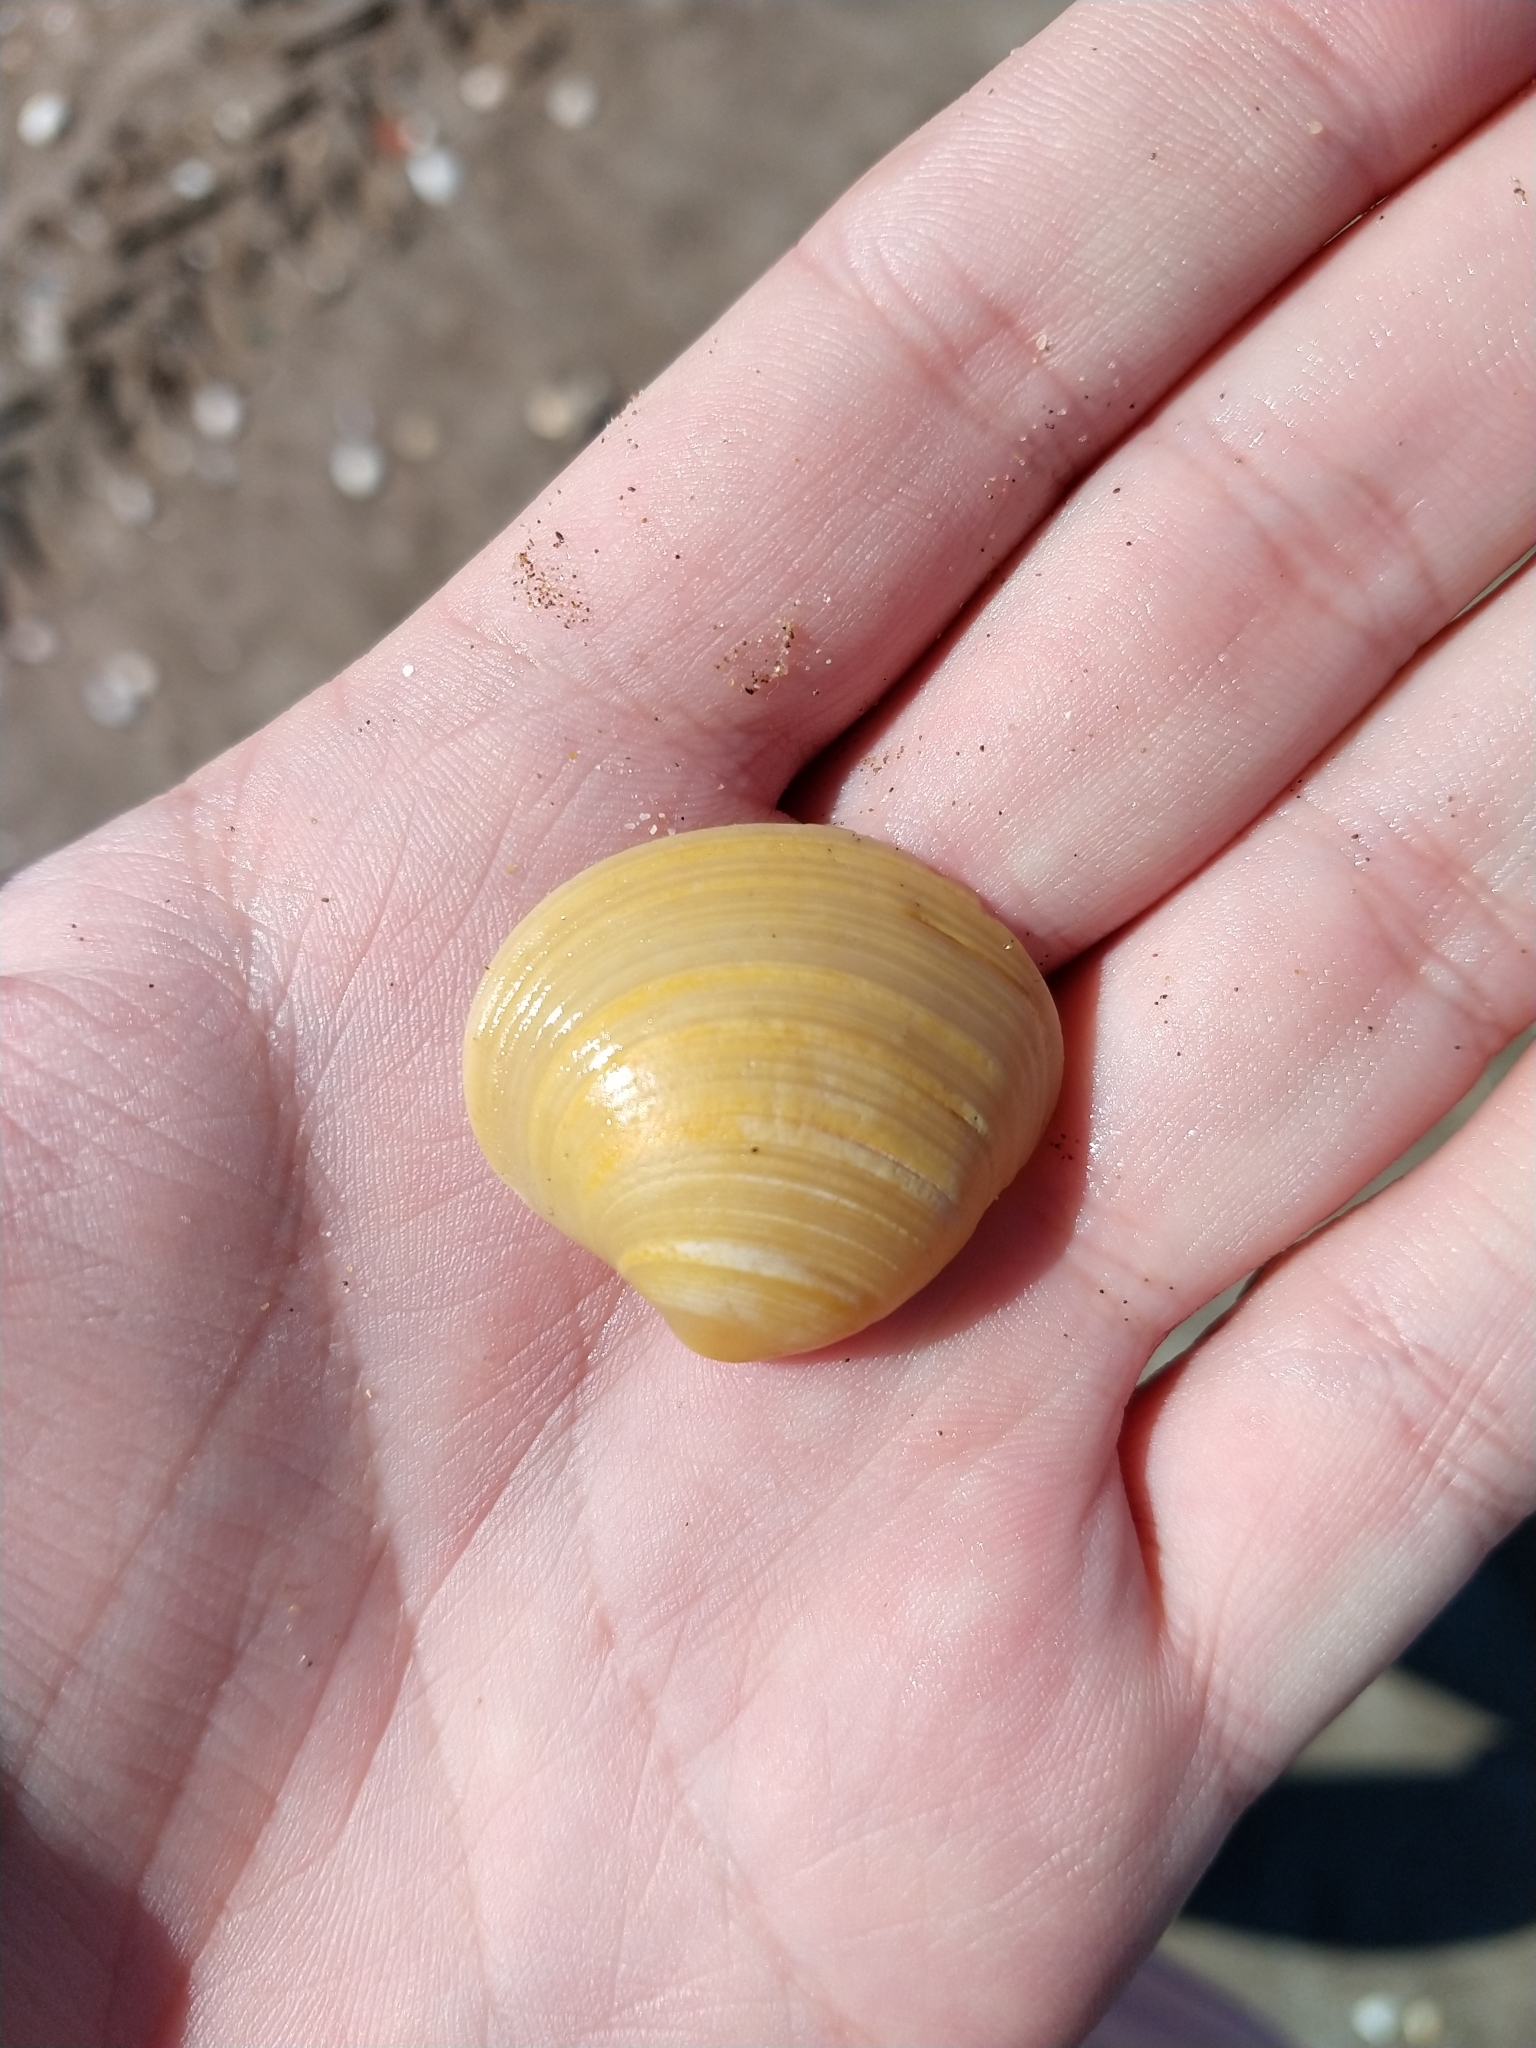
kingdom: Animalia
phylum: Mollusca
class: Bivalvia
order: Venerida
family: Veneridae
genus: Eucallista
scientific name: Eucallista purpurata
